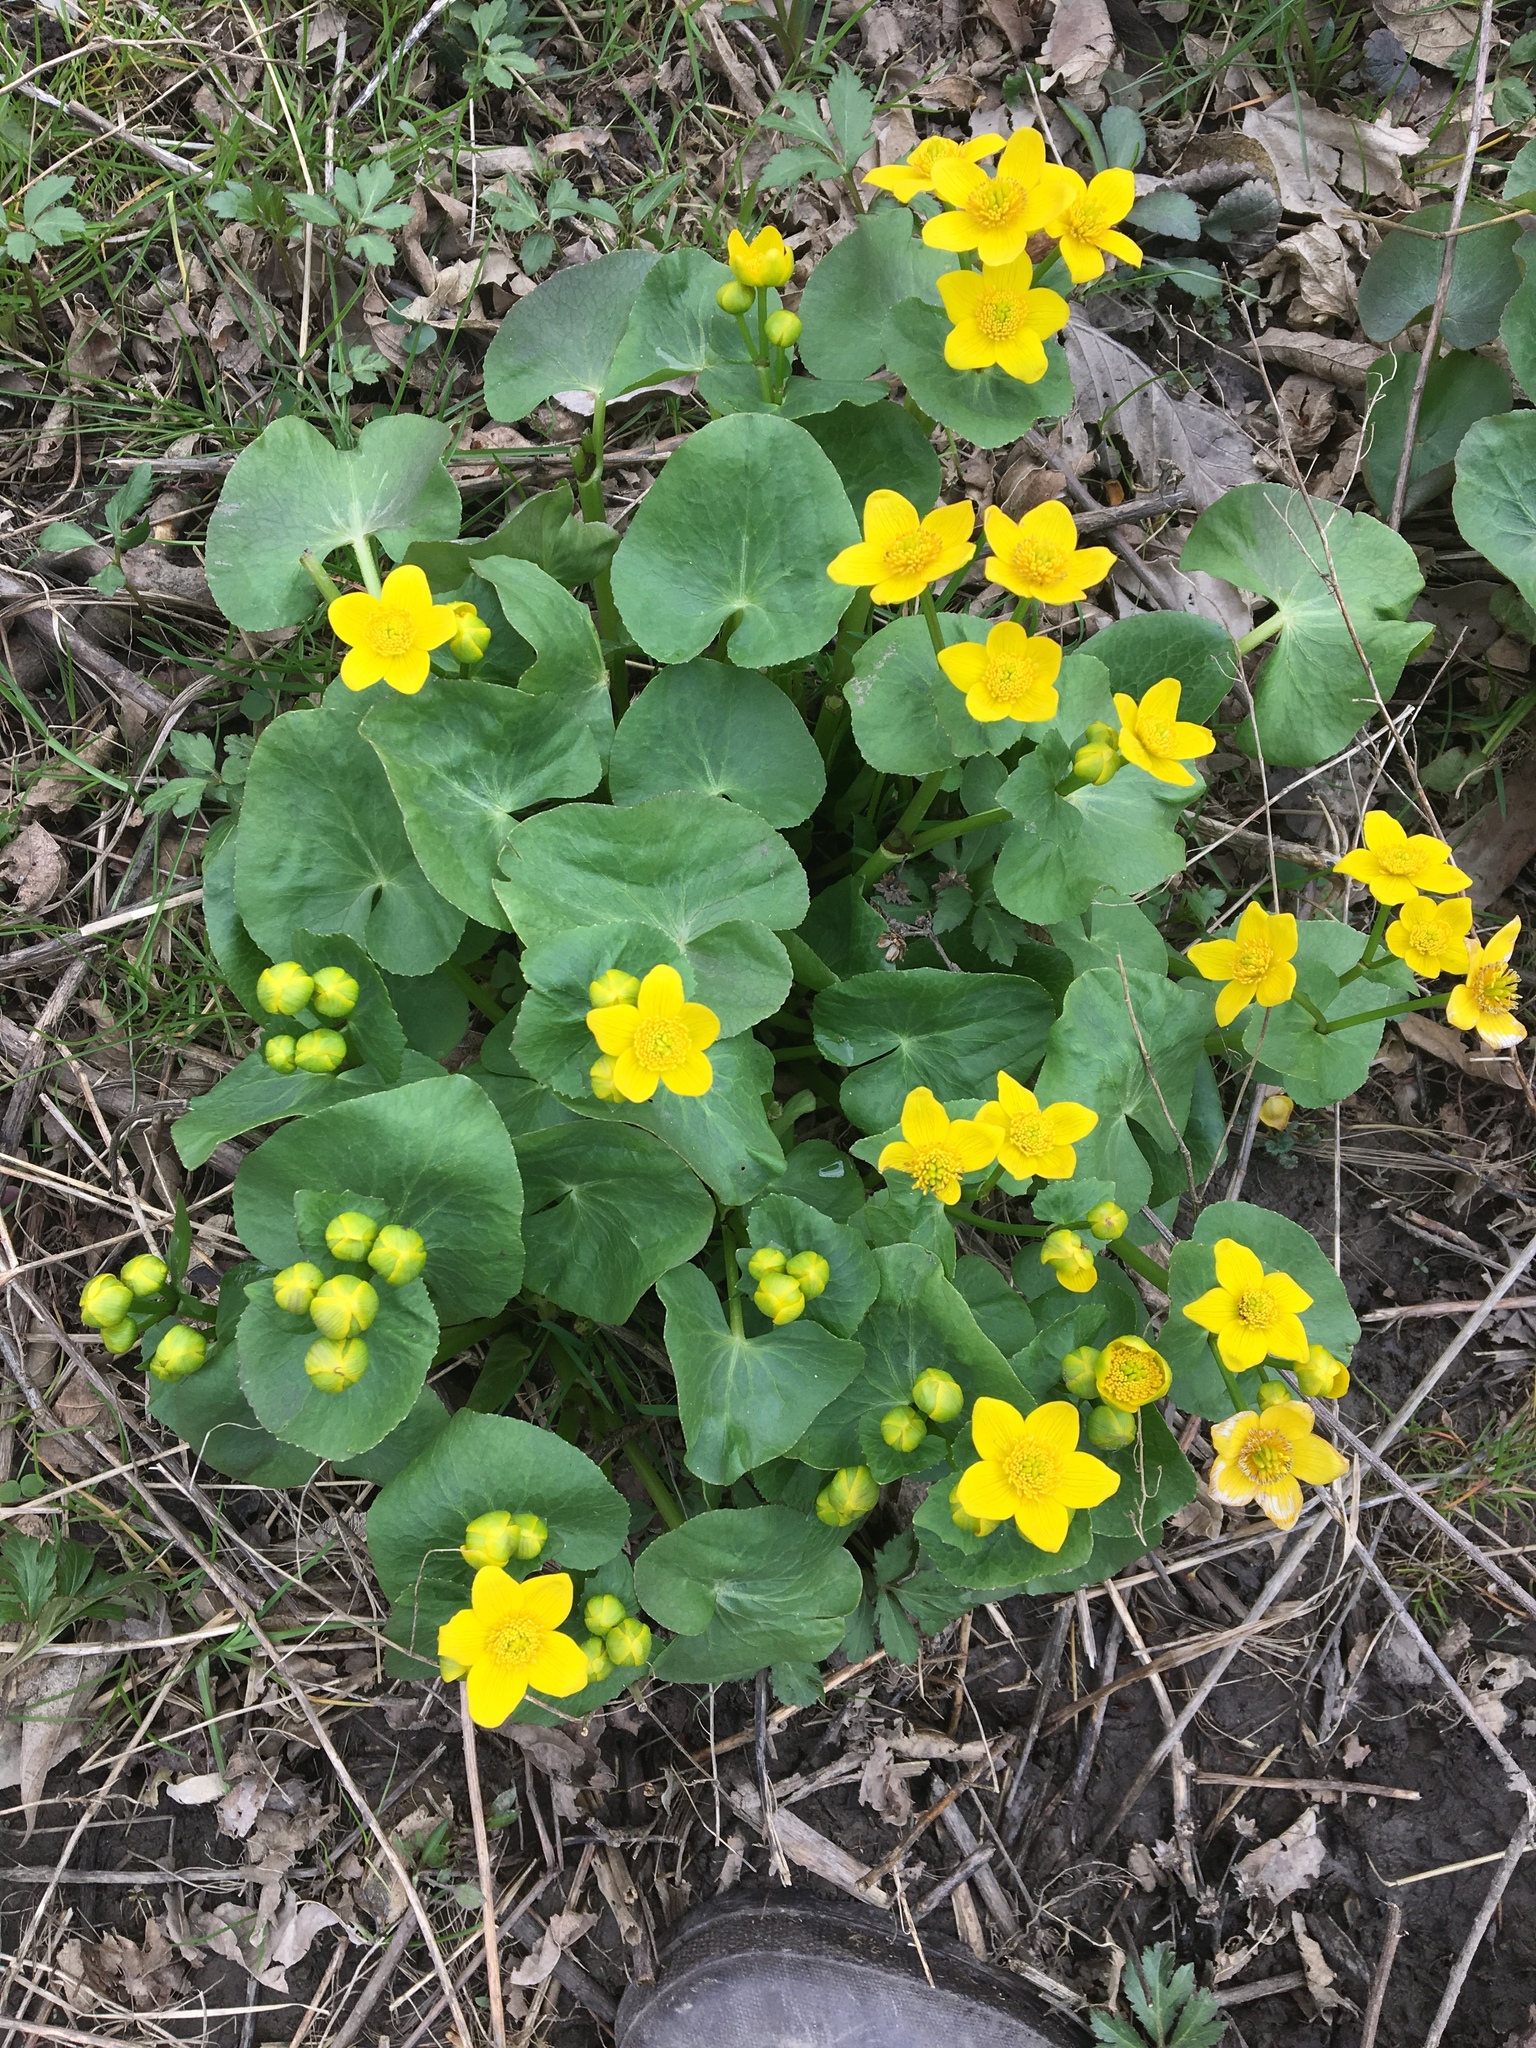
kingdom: Plantae
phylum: Tracheophyta
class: Magnoliopsida
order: Ranunculales
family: Ranunculaceae
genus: Caltha
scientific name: Caltha palustris
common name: Marsh marigold
